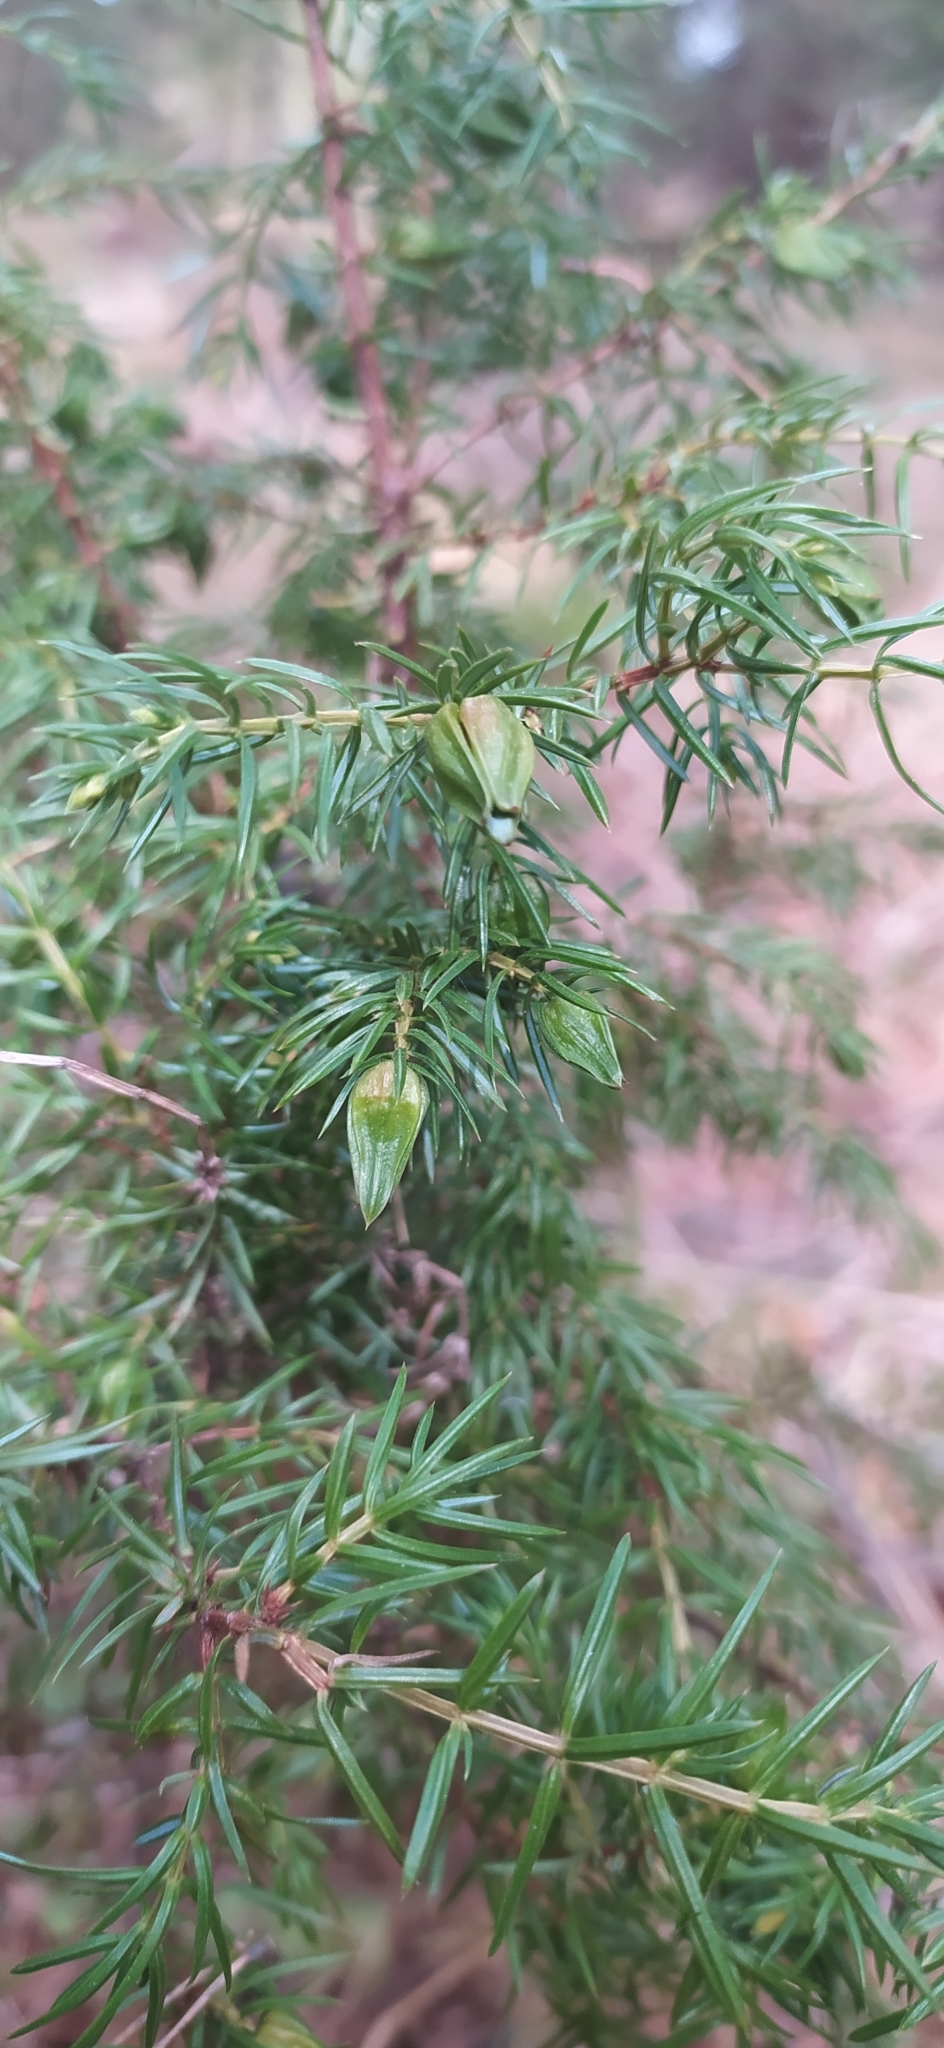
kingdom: Plantae
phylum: Tracheophyta
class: Pinopsida
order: Pinales
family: Cupressaceae
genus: Juniperus
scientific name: Juniperus communis
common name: Common juniper
